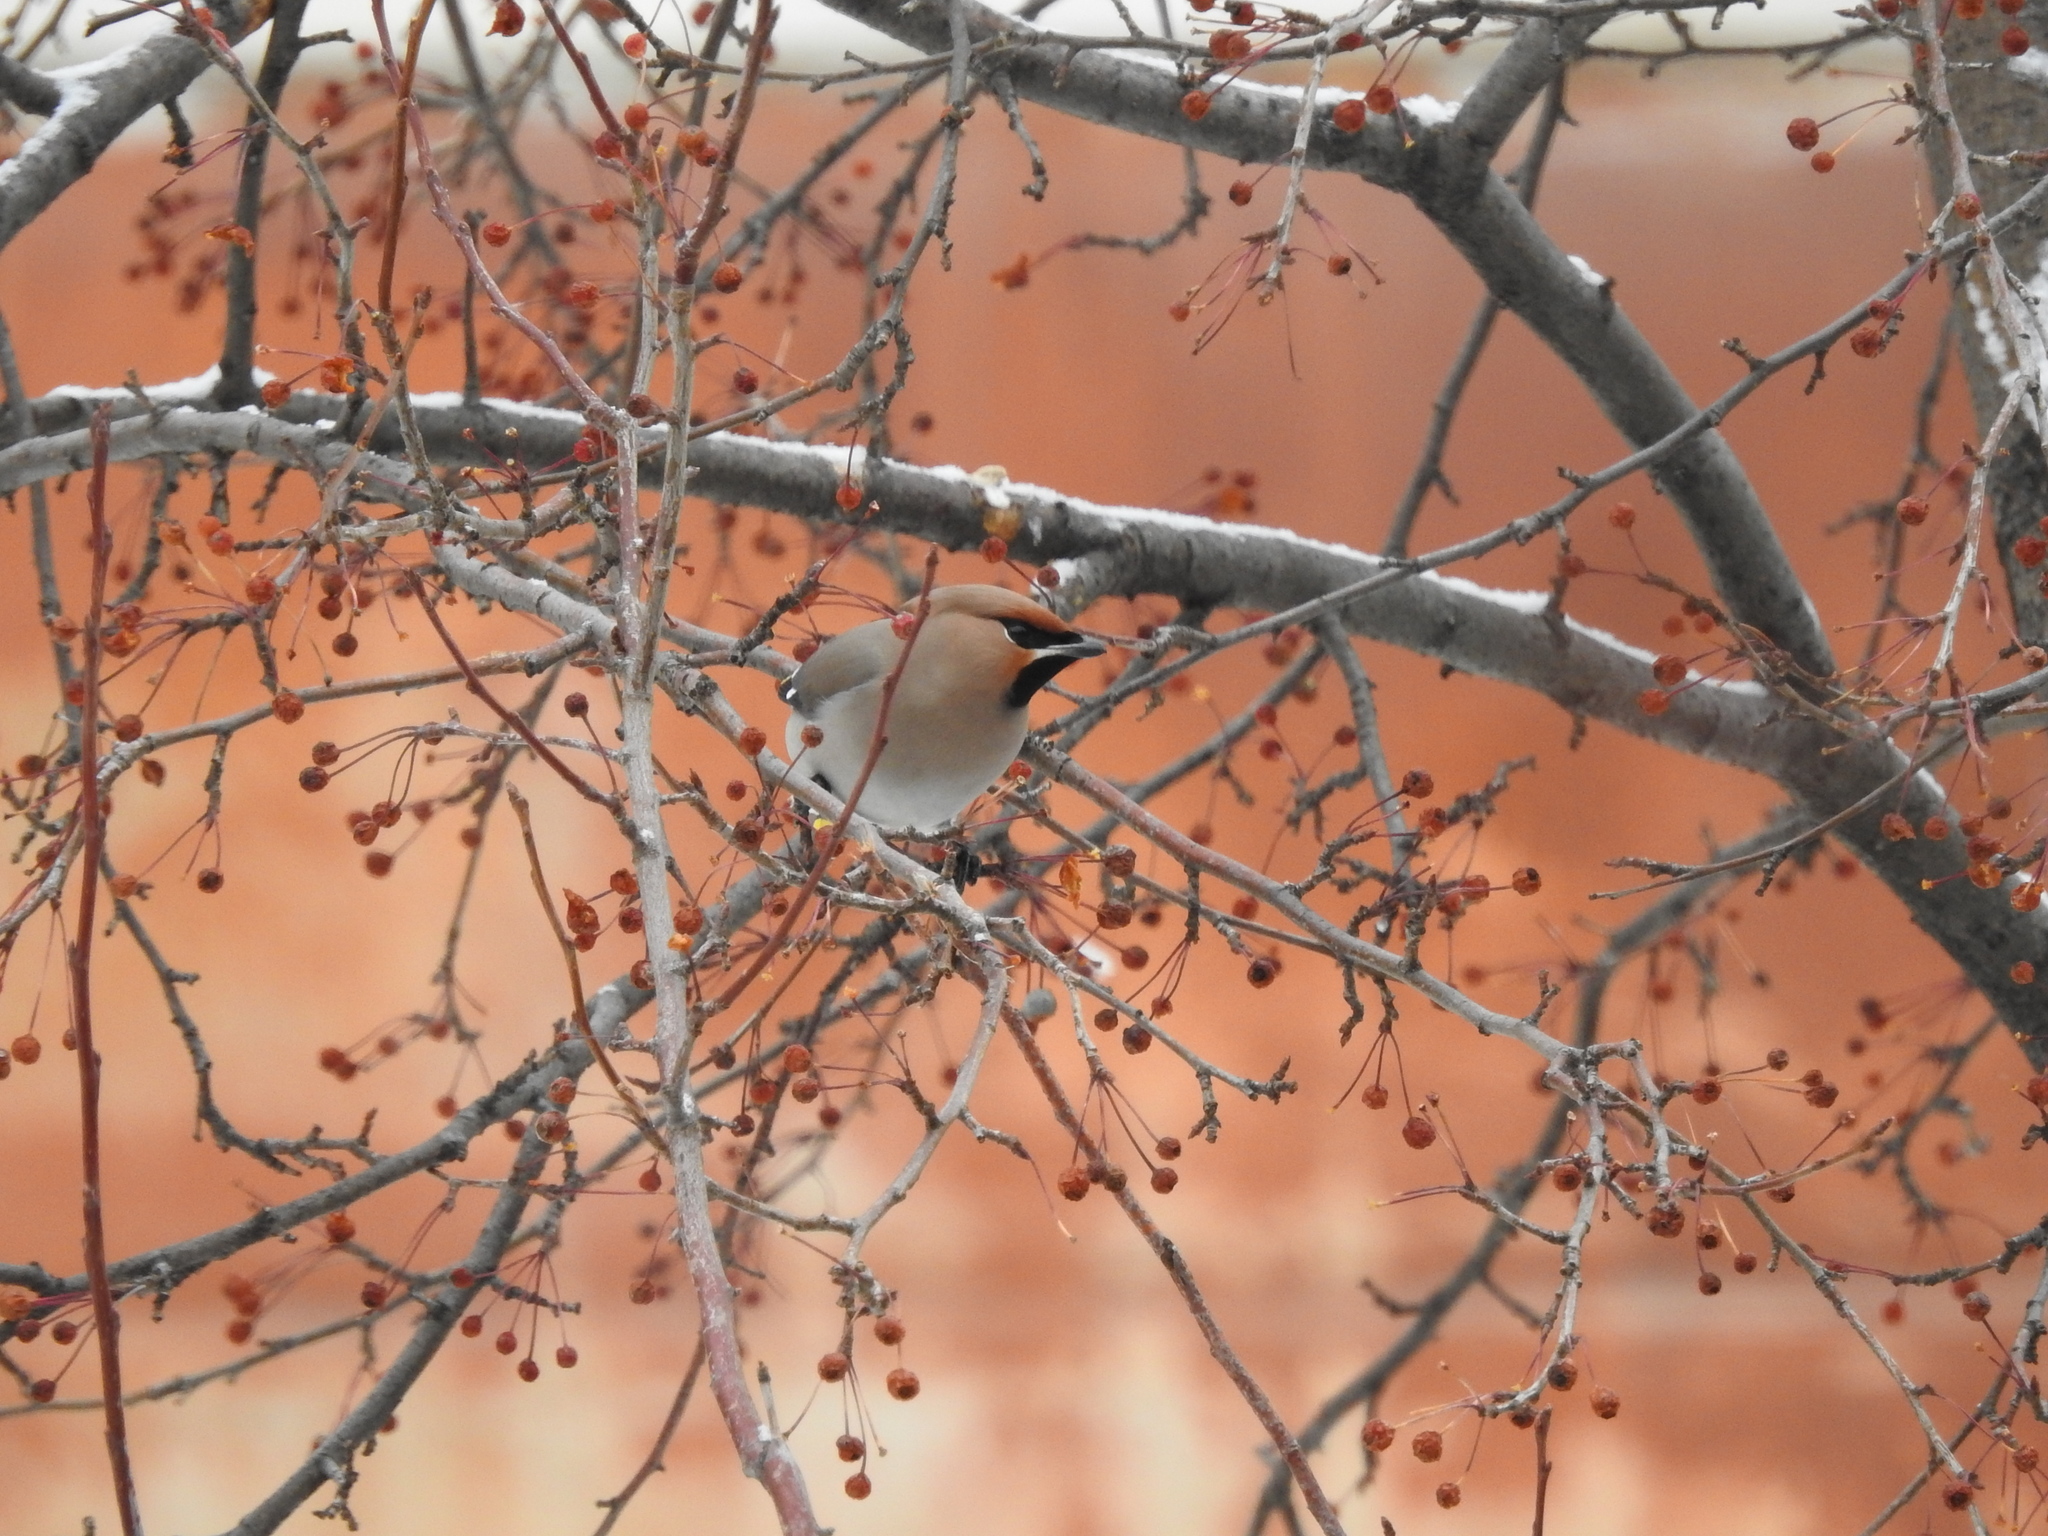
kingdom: Animalia
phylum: Chordata
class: Aves
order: Passeriformes
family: Bombycillidae
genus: Bombycilla
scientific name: Bombycilla garrulus
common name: Bohemian waxwing
